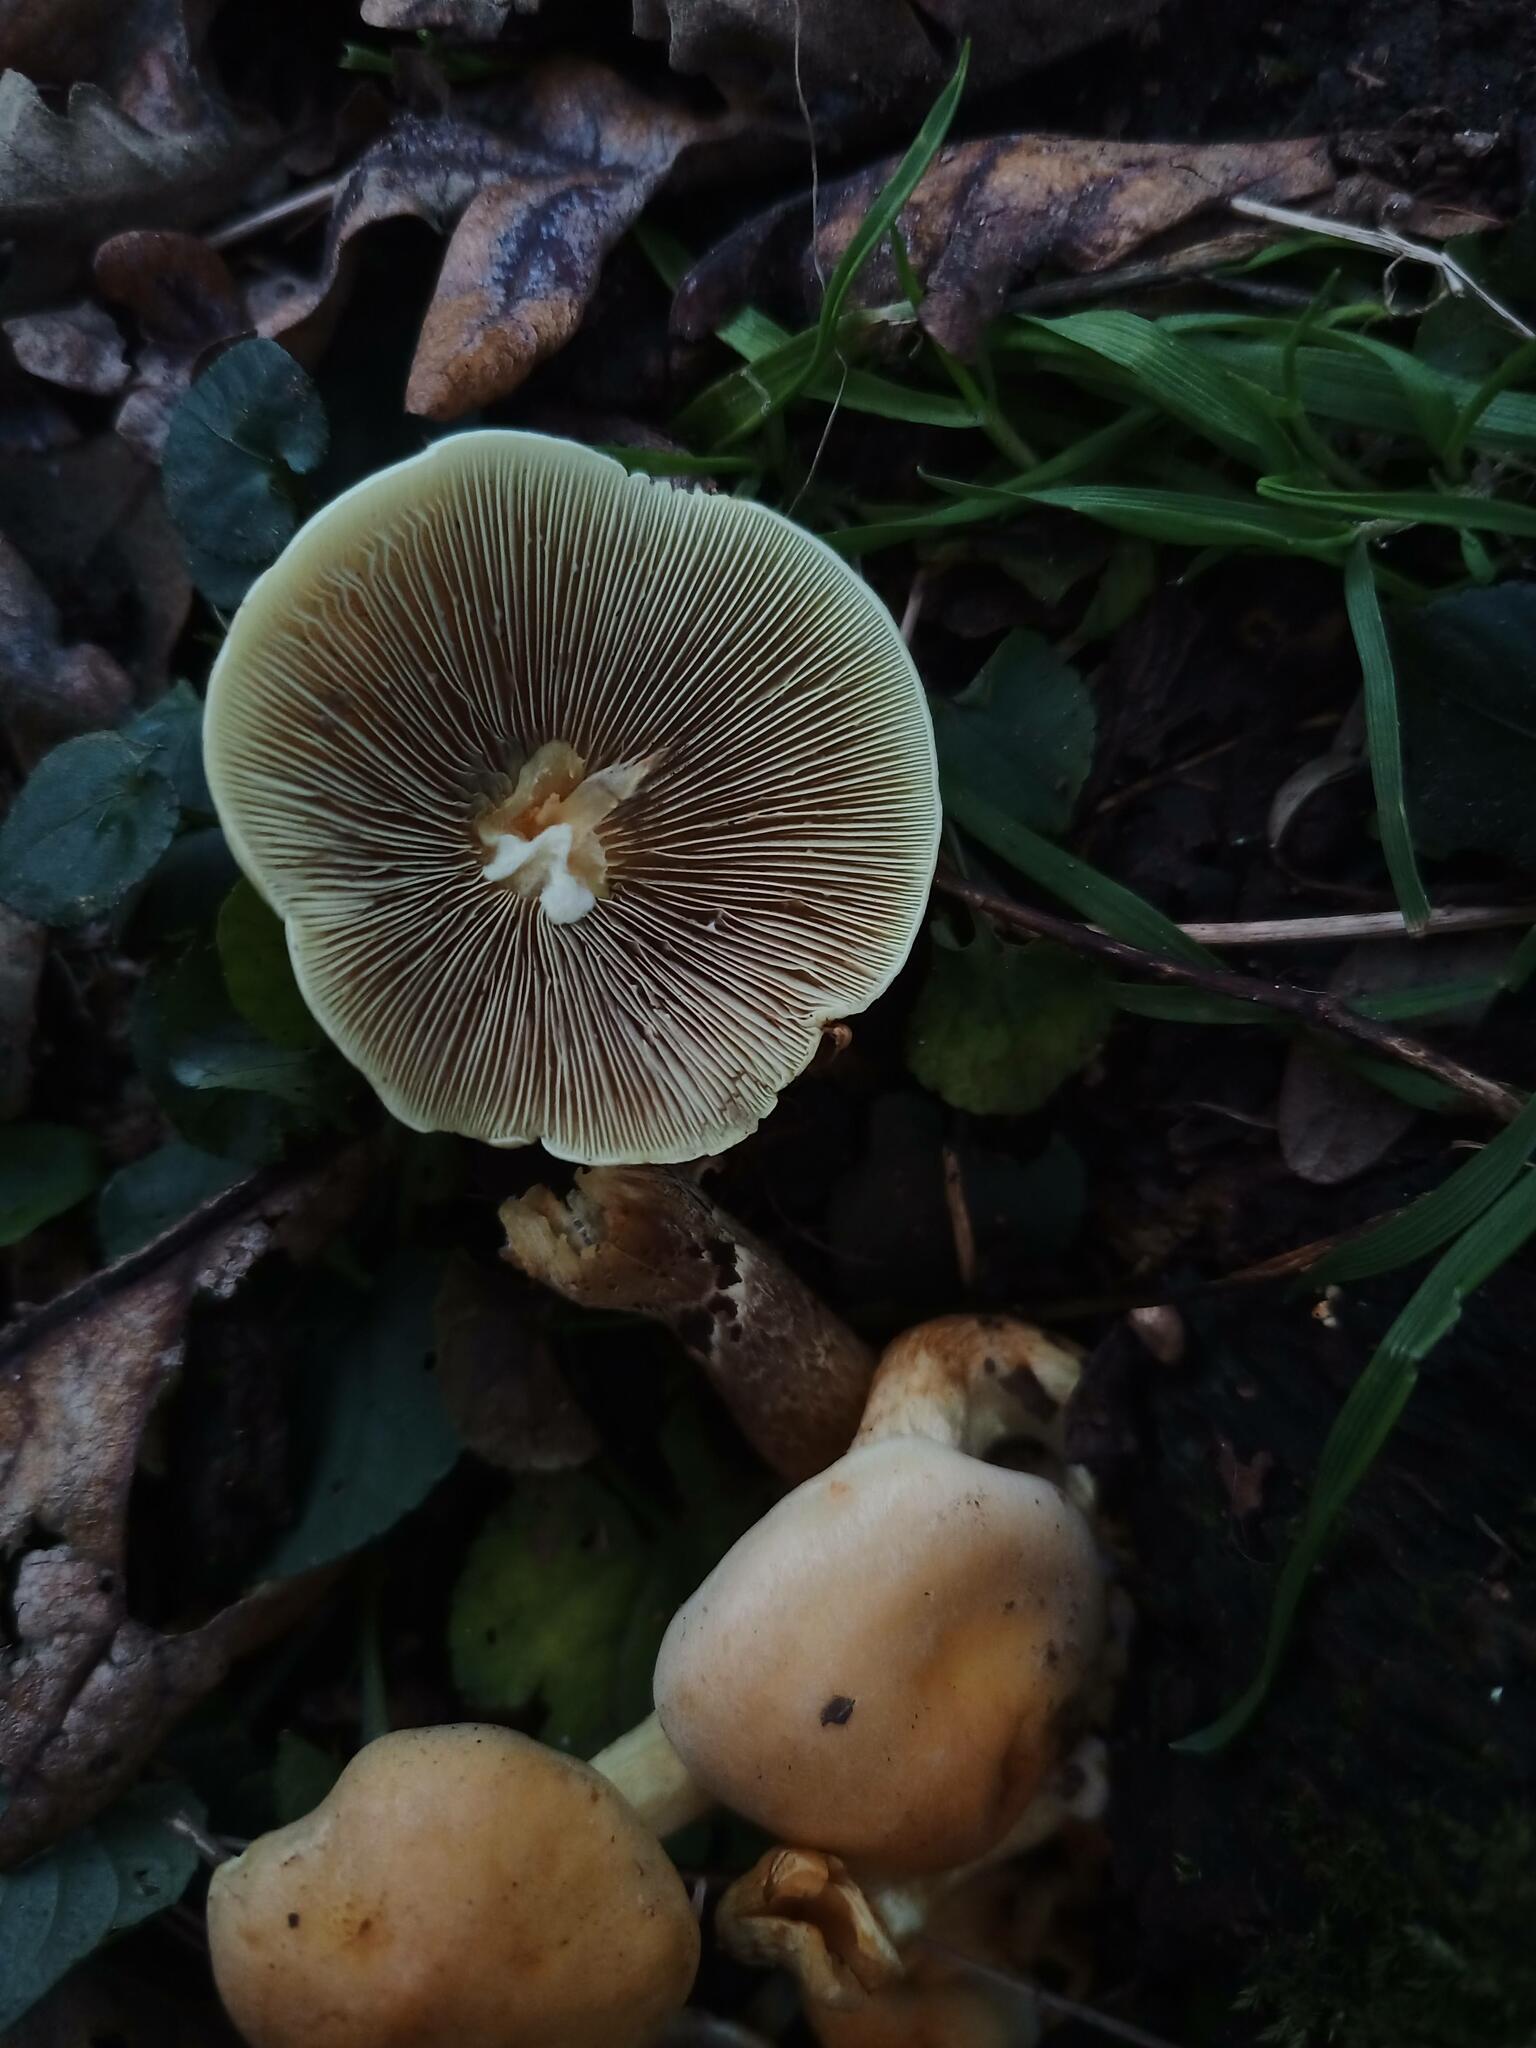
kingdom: Fungi
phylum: Basidiomycota
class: Agaricomycetes
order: Agaricales
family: Strophariaceae
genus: Hypholoma
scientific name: Hypholoma fasciculare
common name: Sulphur tuft
